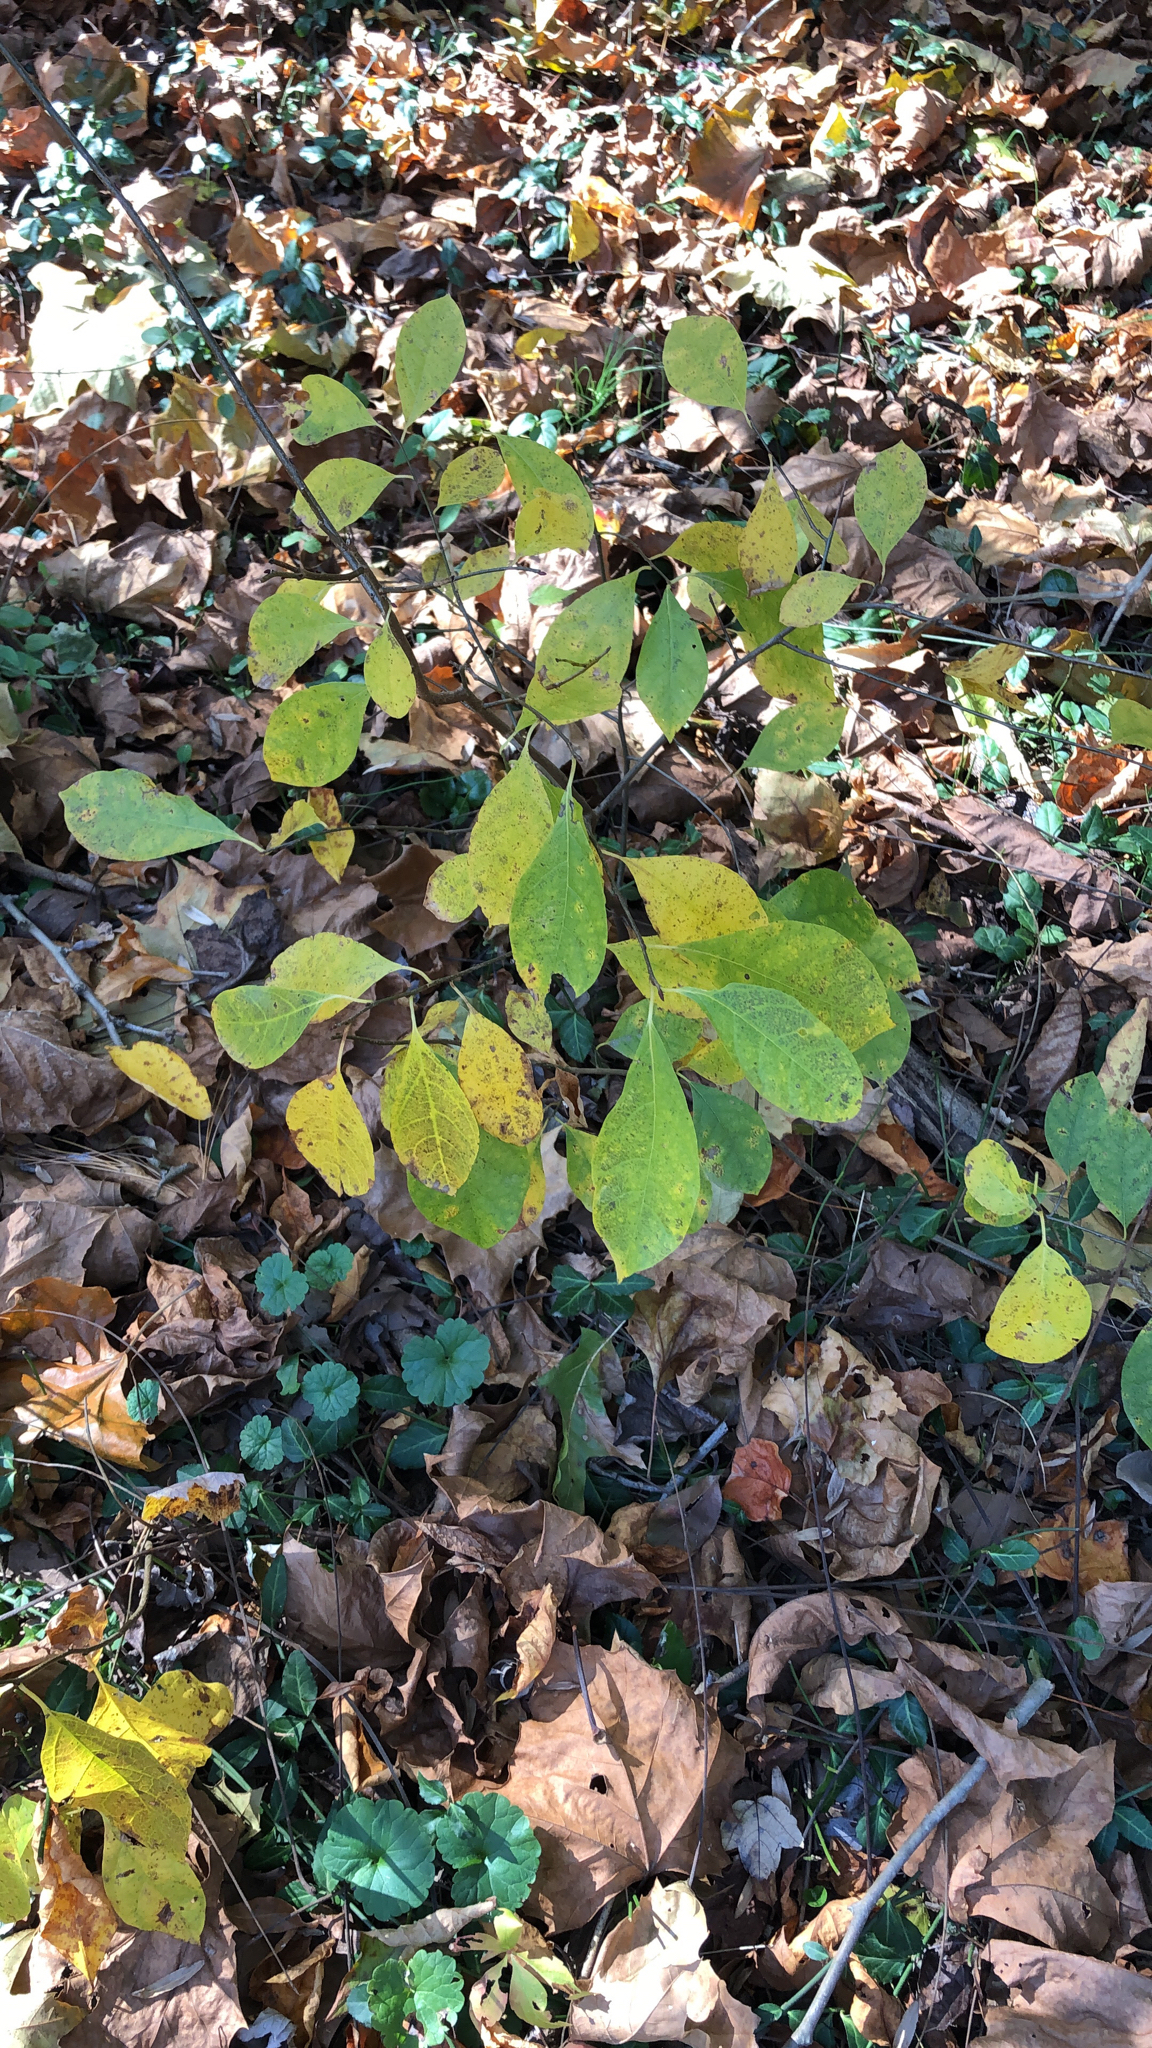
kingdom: Plantae
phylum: Tracheophyta
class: Magnoliopsida
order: Laurales
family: Lauraceae
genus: Lindera
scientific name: Lindera benzoin
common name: Spicebush
